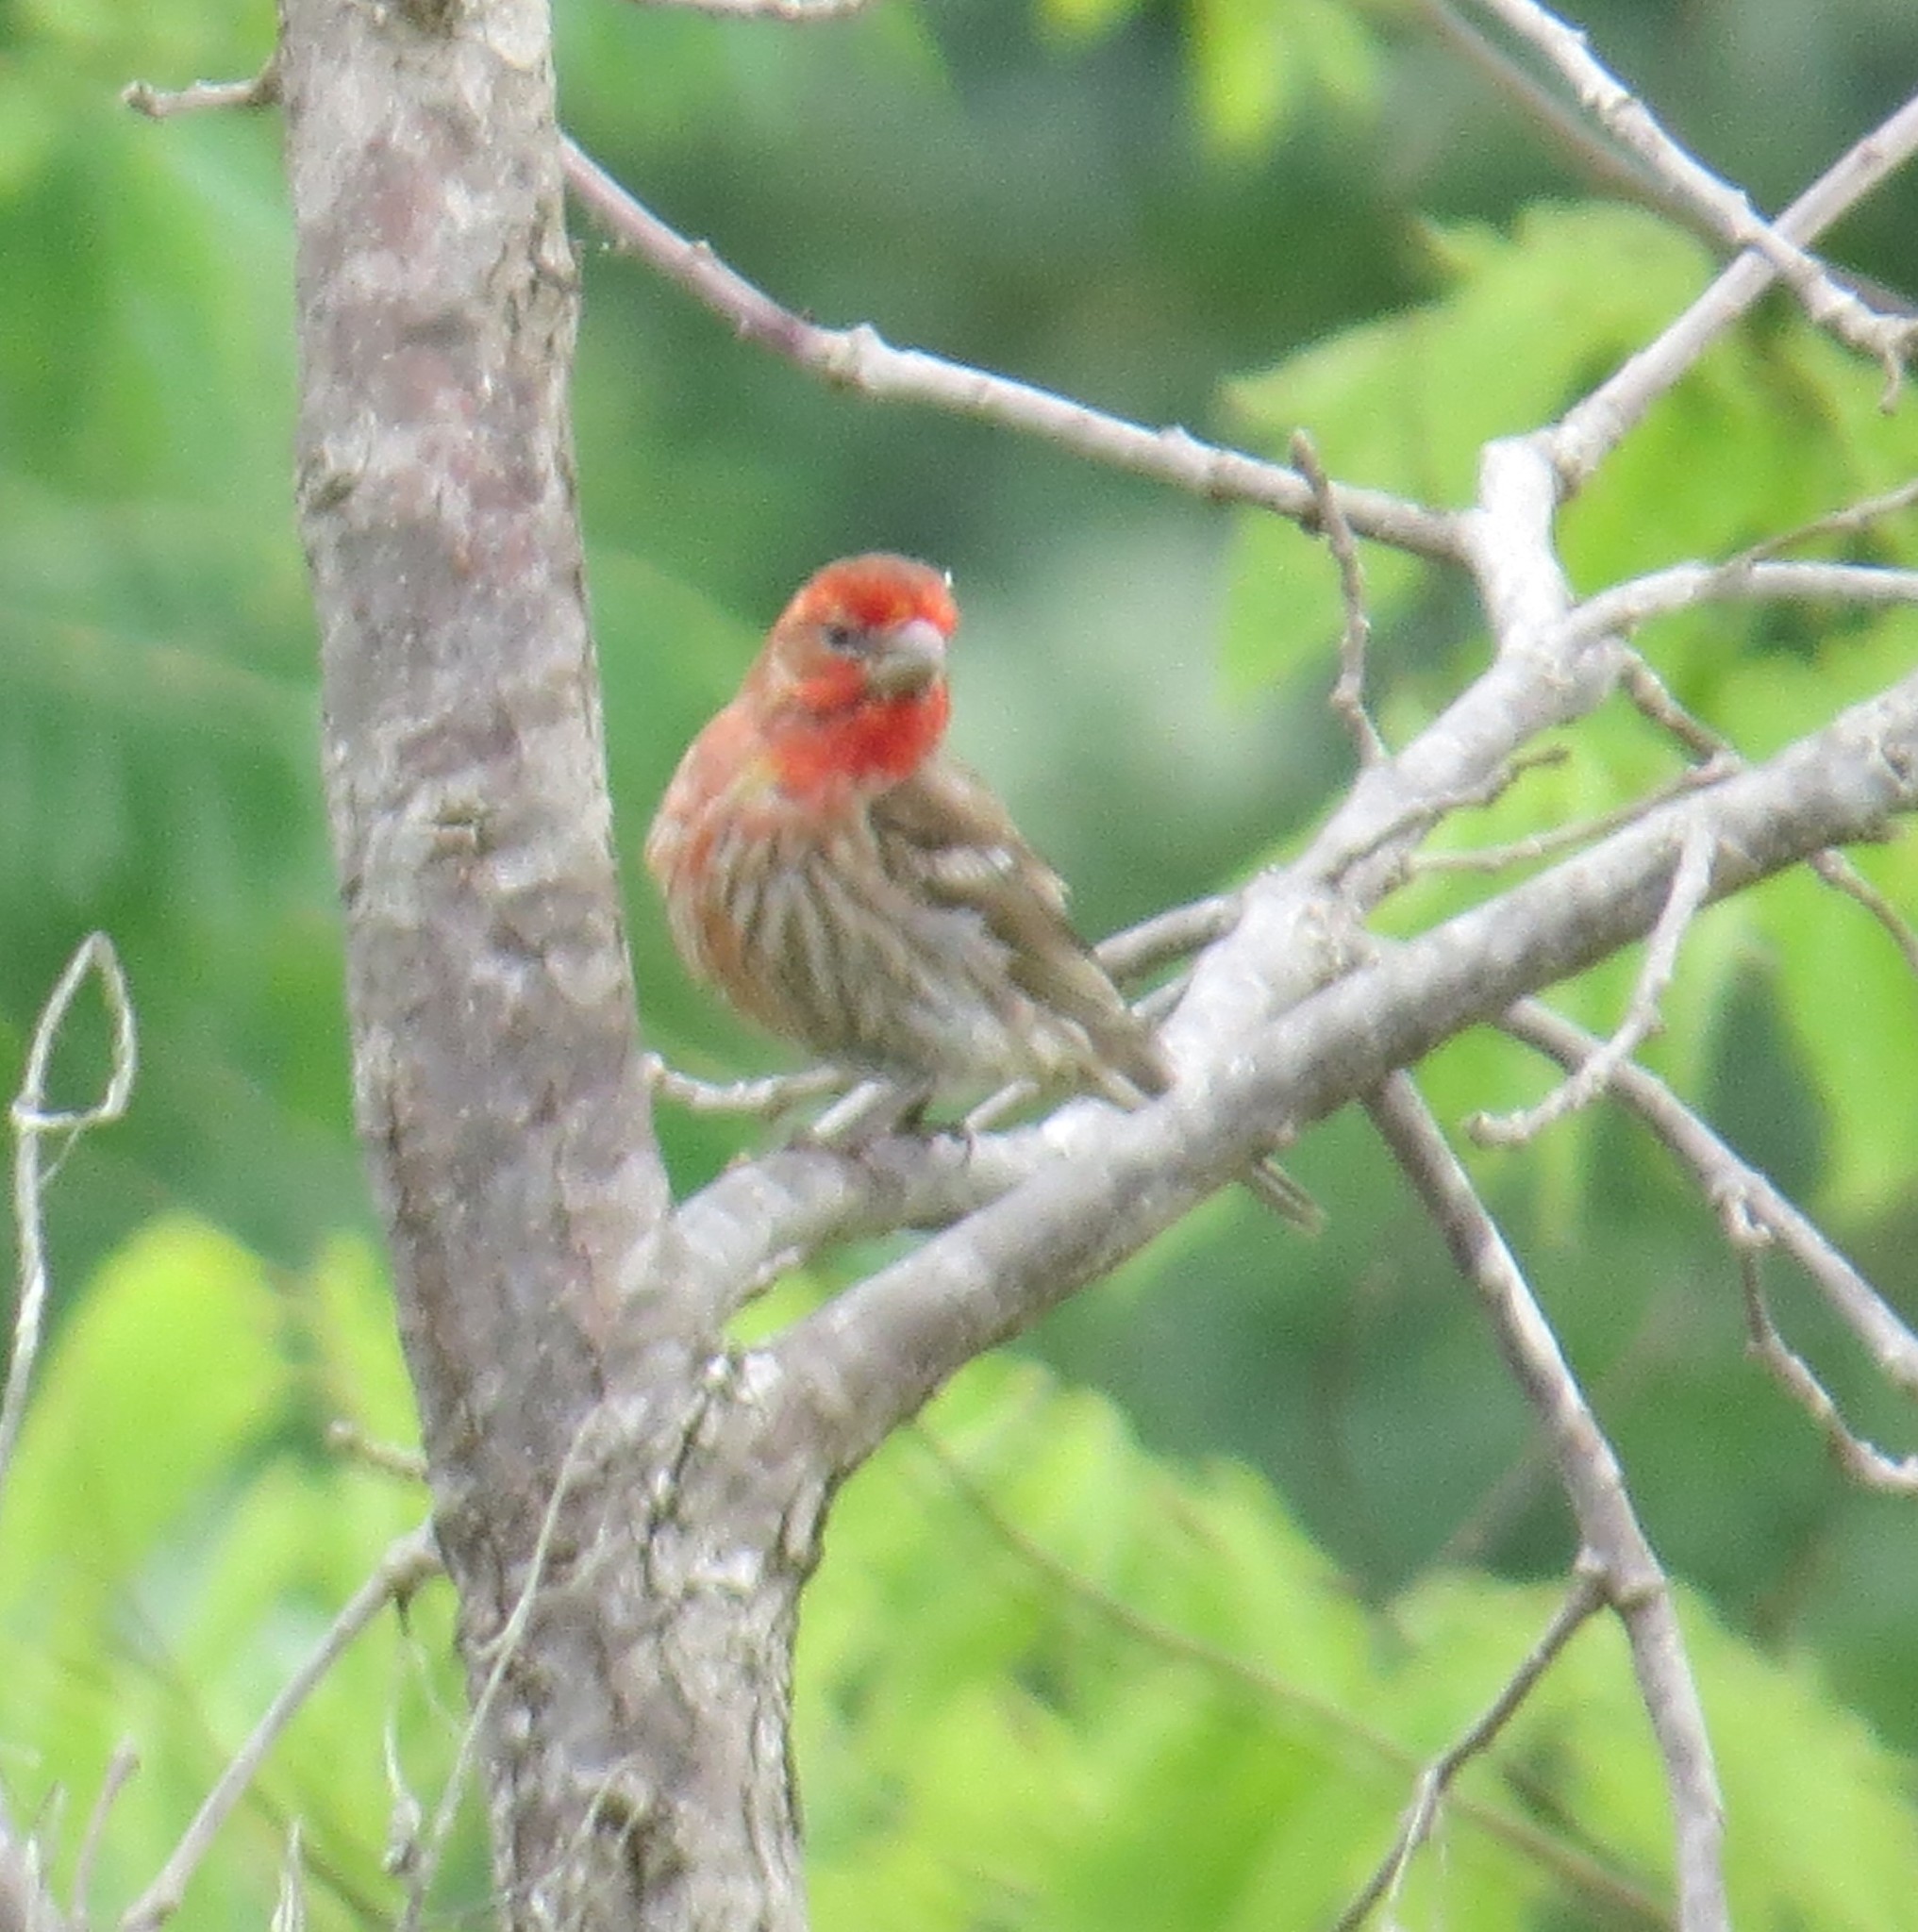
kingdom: Animalia
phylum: Chordata
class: Aves
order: Passeriformes
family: Fringillidae
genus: Haemorhous
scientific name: Haemorhous mexicanus
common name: House finch
